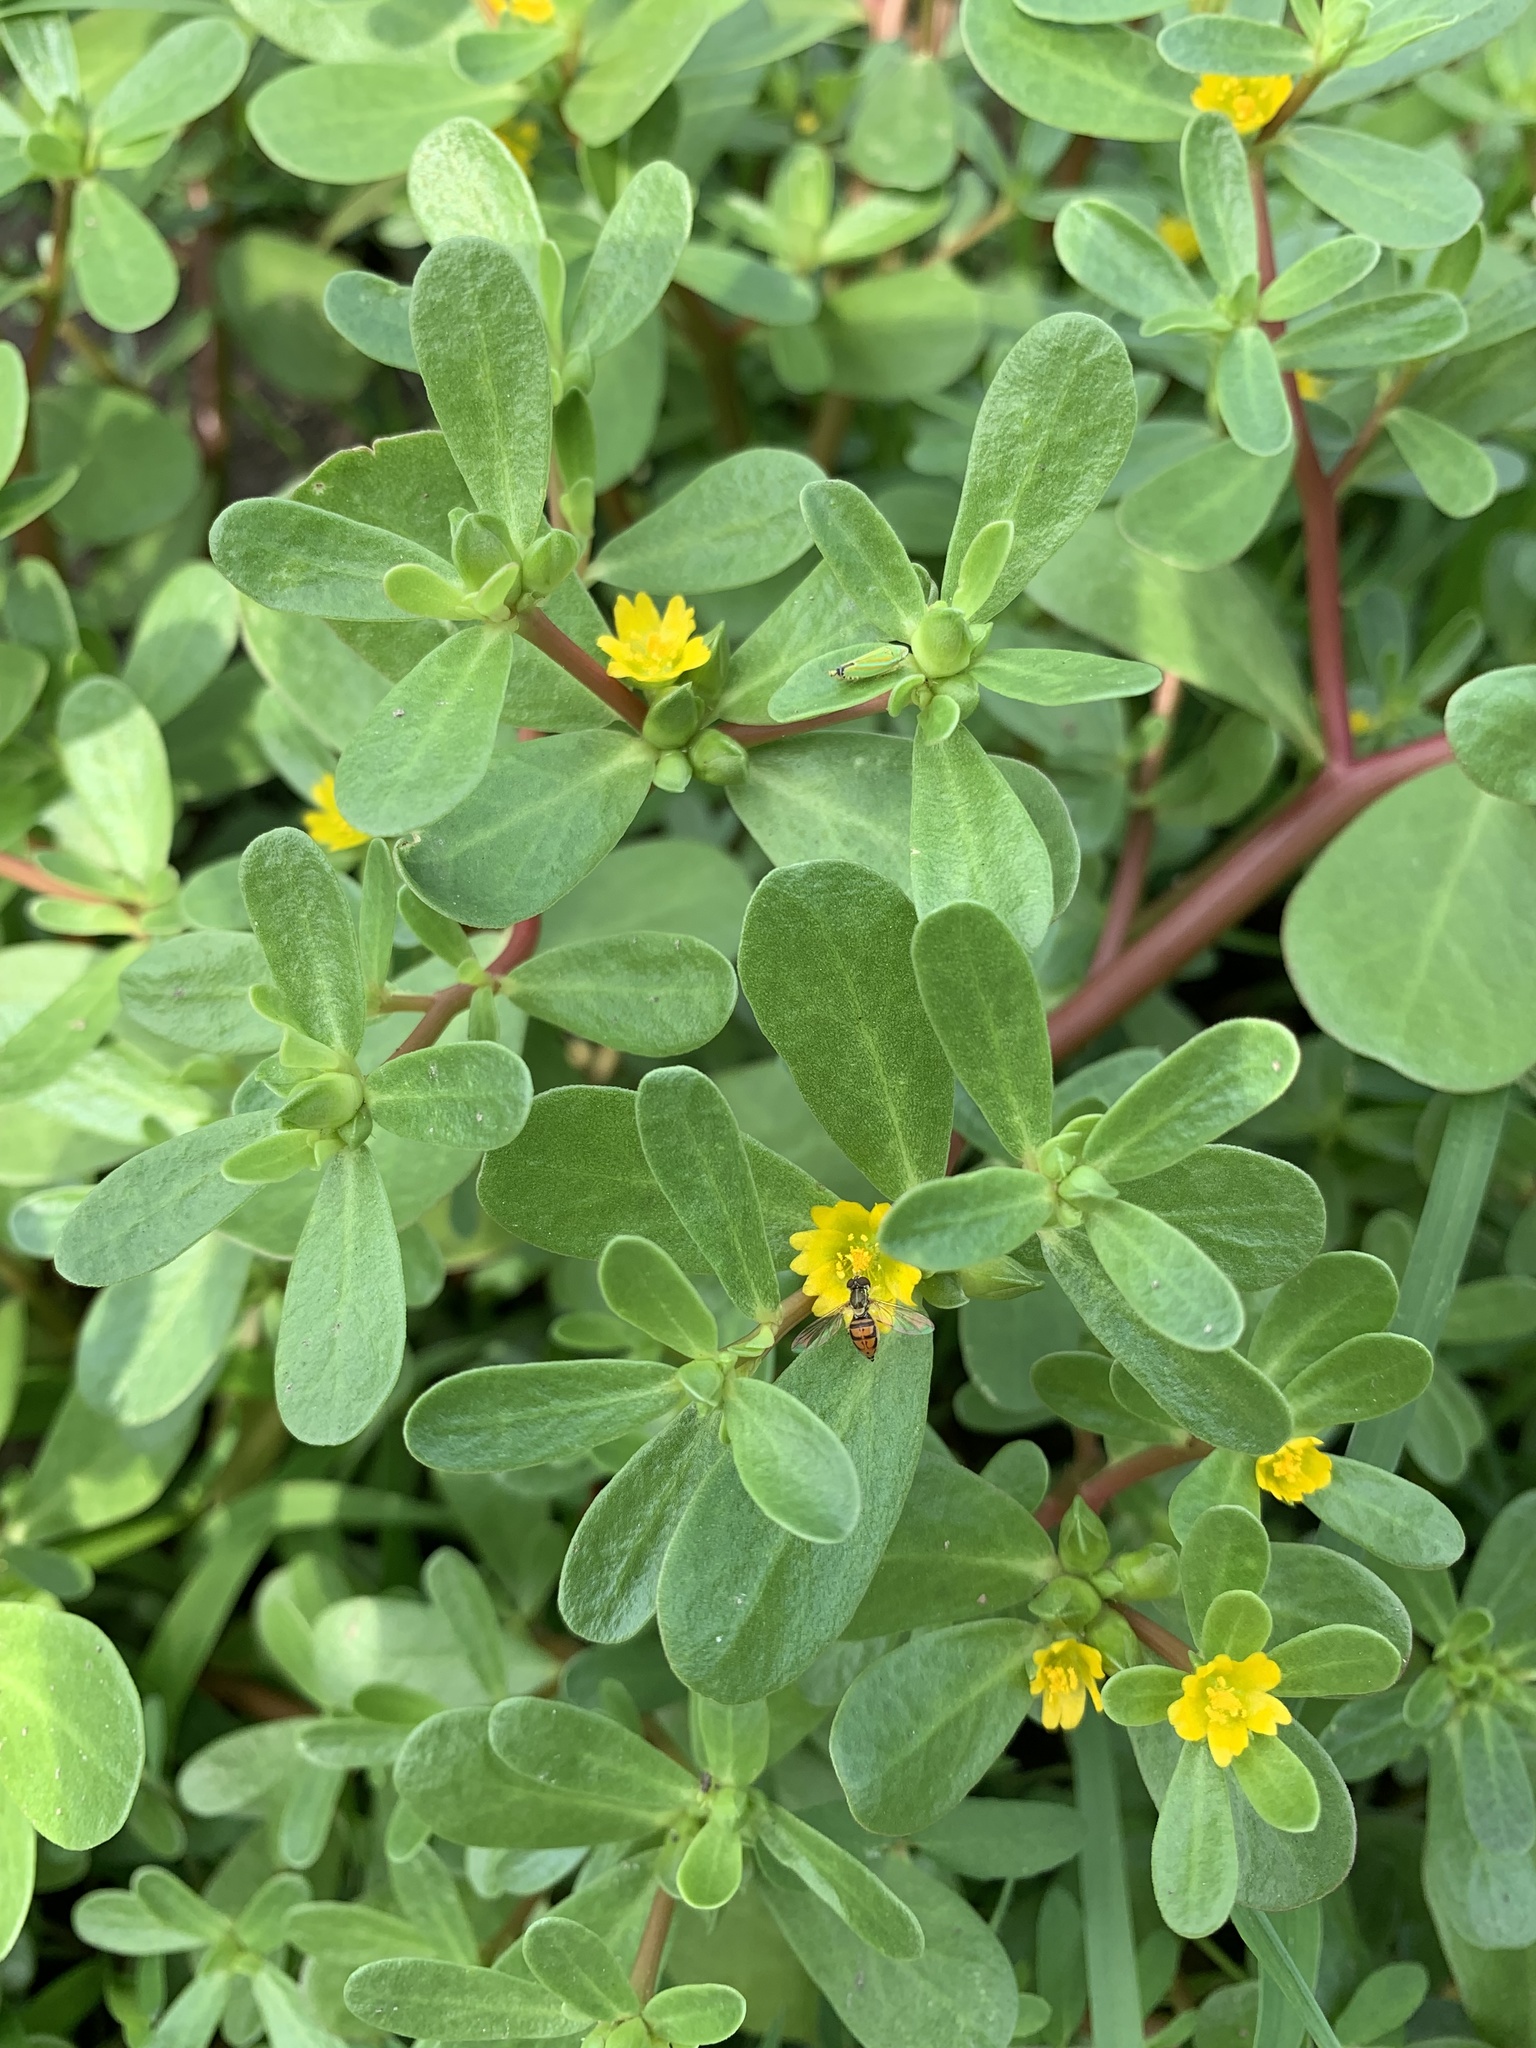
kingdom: Plantae
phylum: Tracheophyta
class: Magnoliopsida
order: Caryophyllales
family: Portulacaceae
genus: Portulaca
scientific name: Portulaca oleracea
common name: Common purslane
